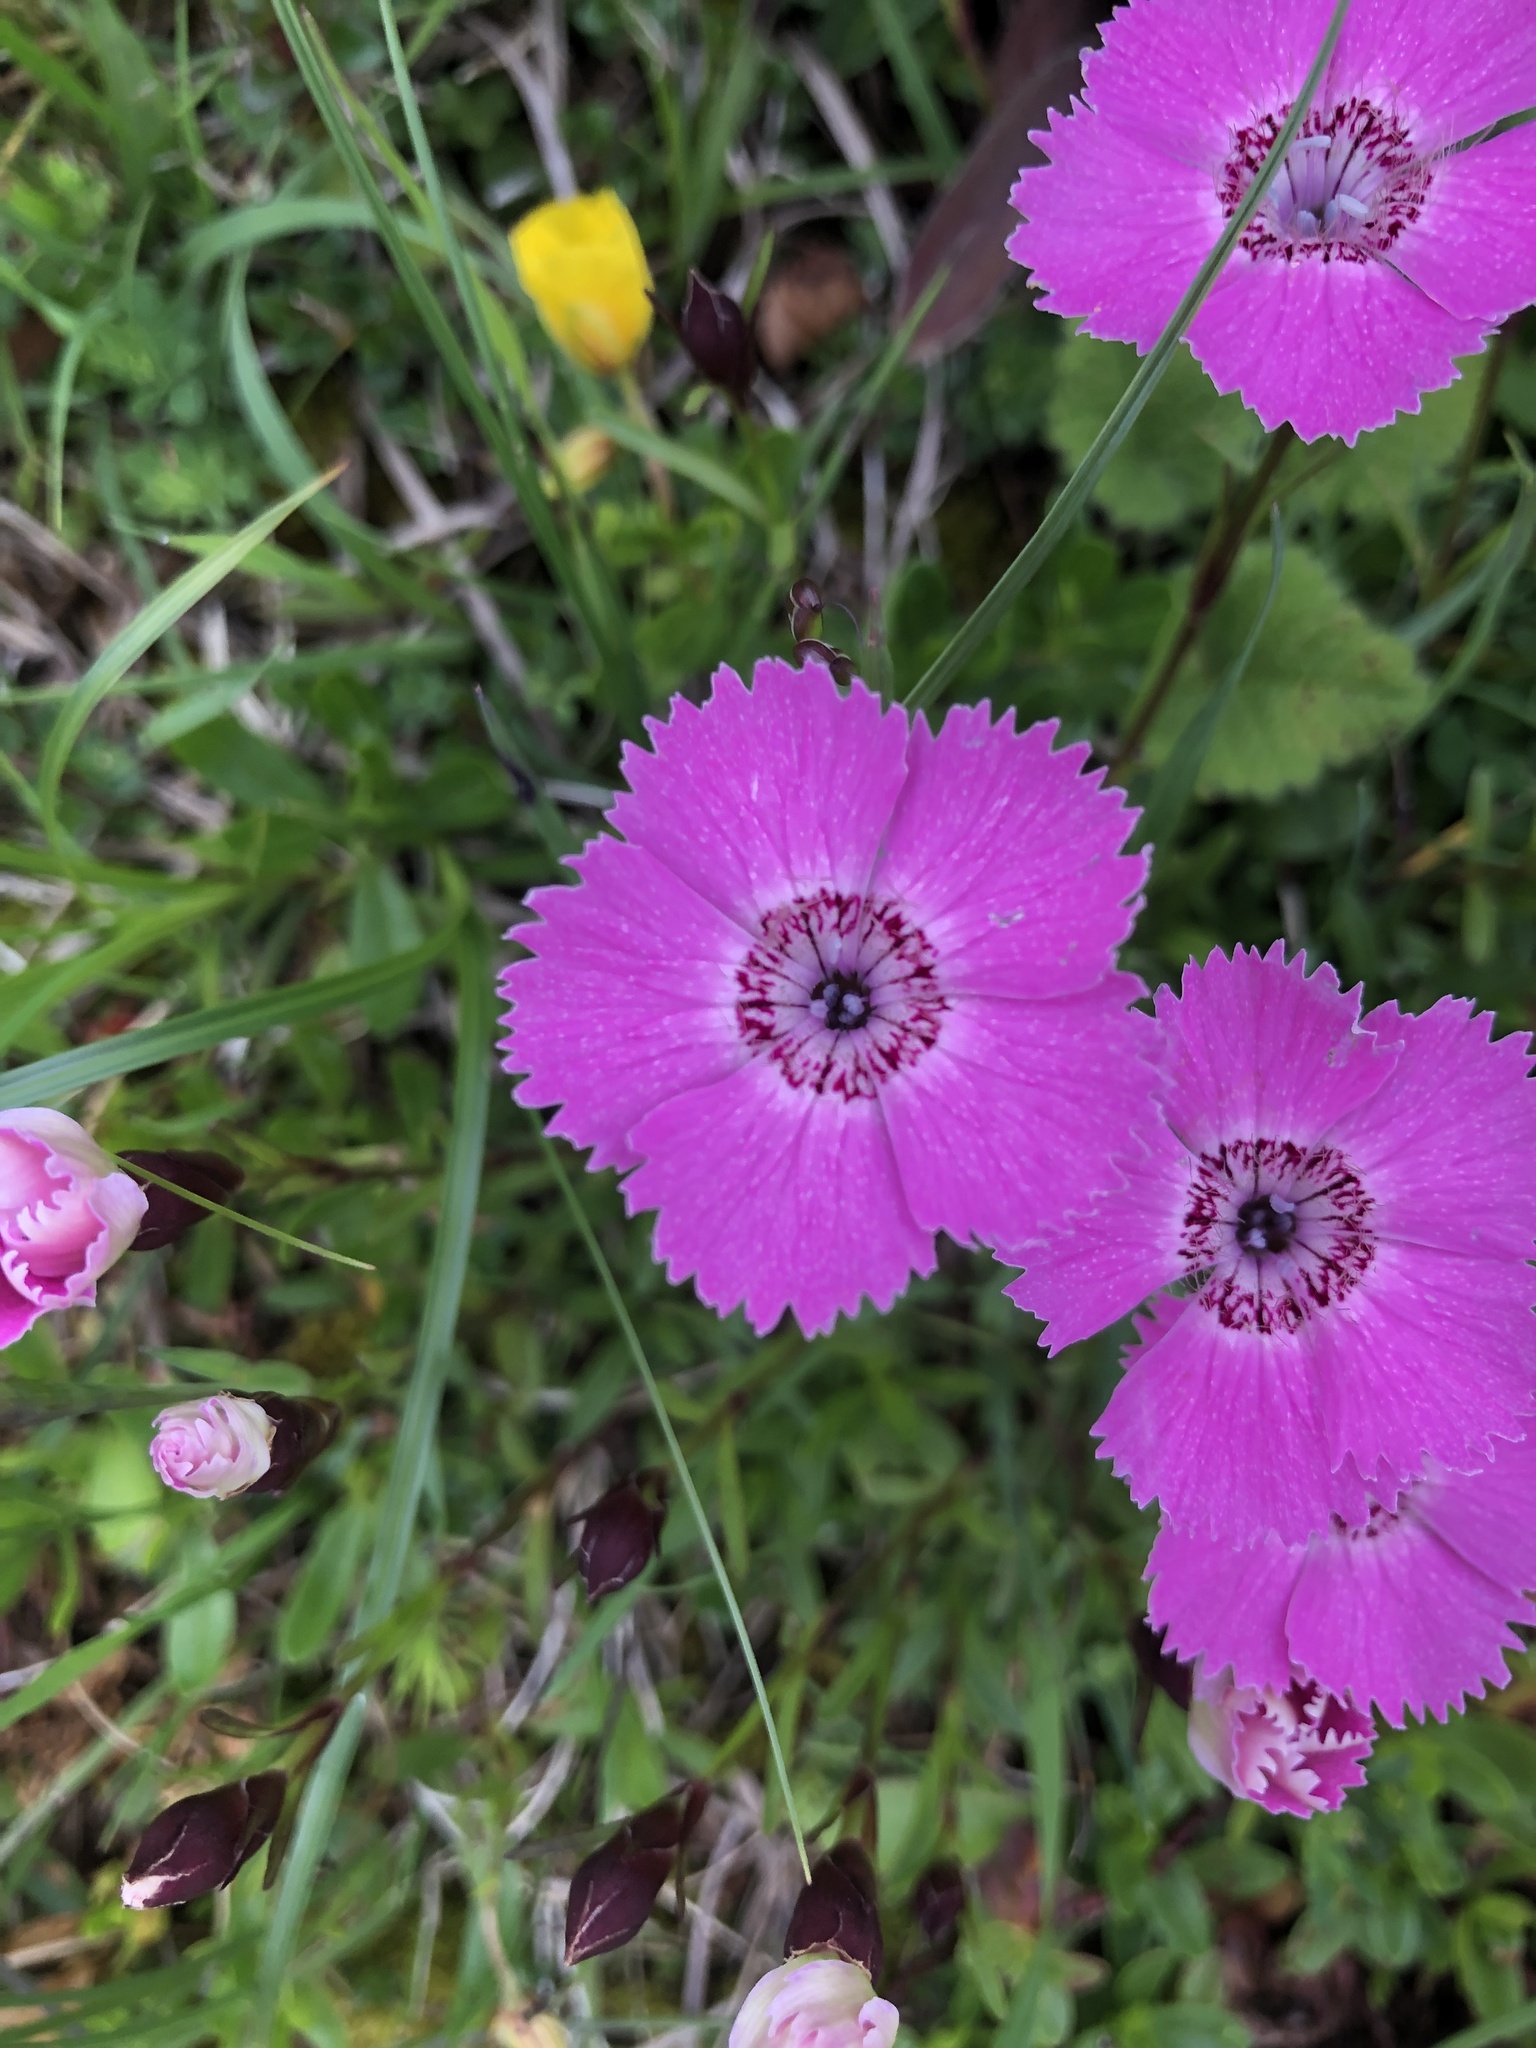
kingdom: Plantae
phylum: Tracheophyta
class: Magnoliopsida
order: Caryophyllales
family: Caryophyllaceae
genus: Dianthus
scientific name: Dianthus alpinus
